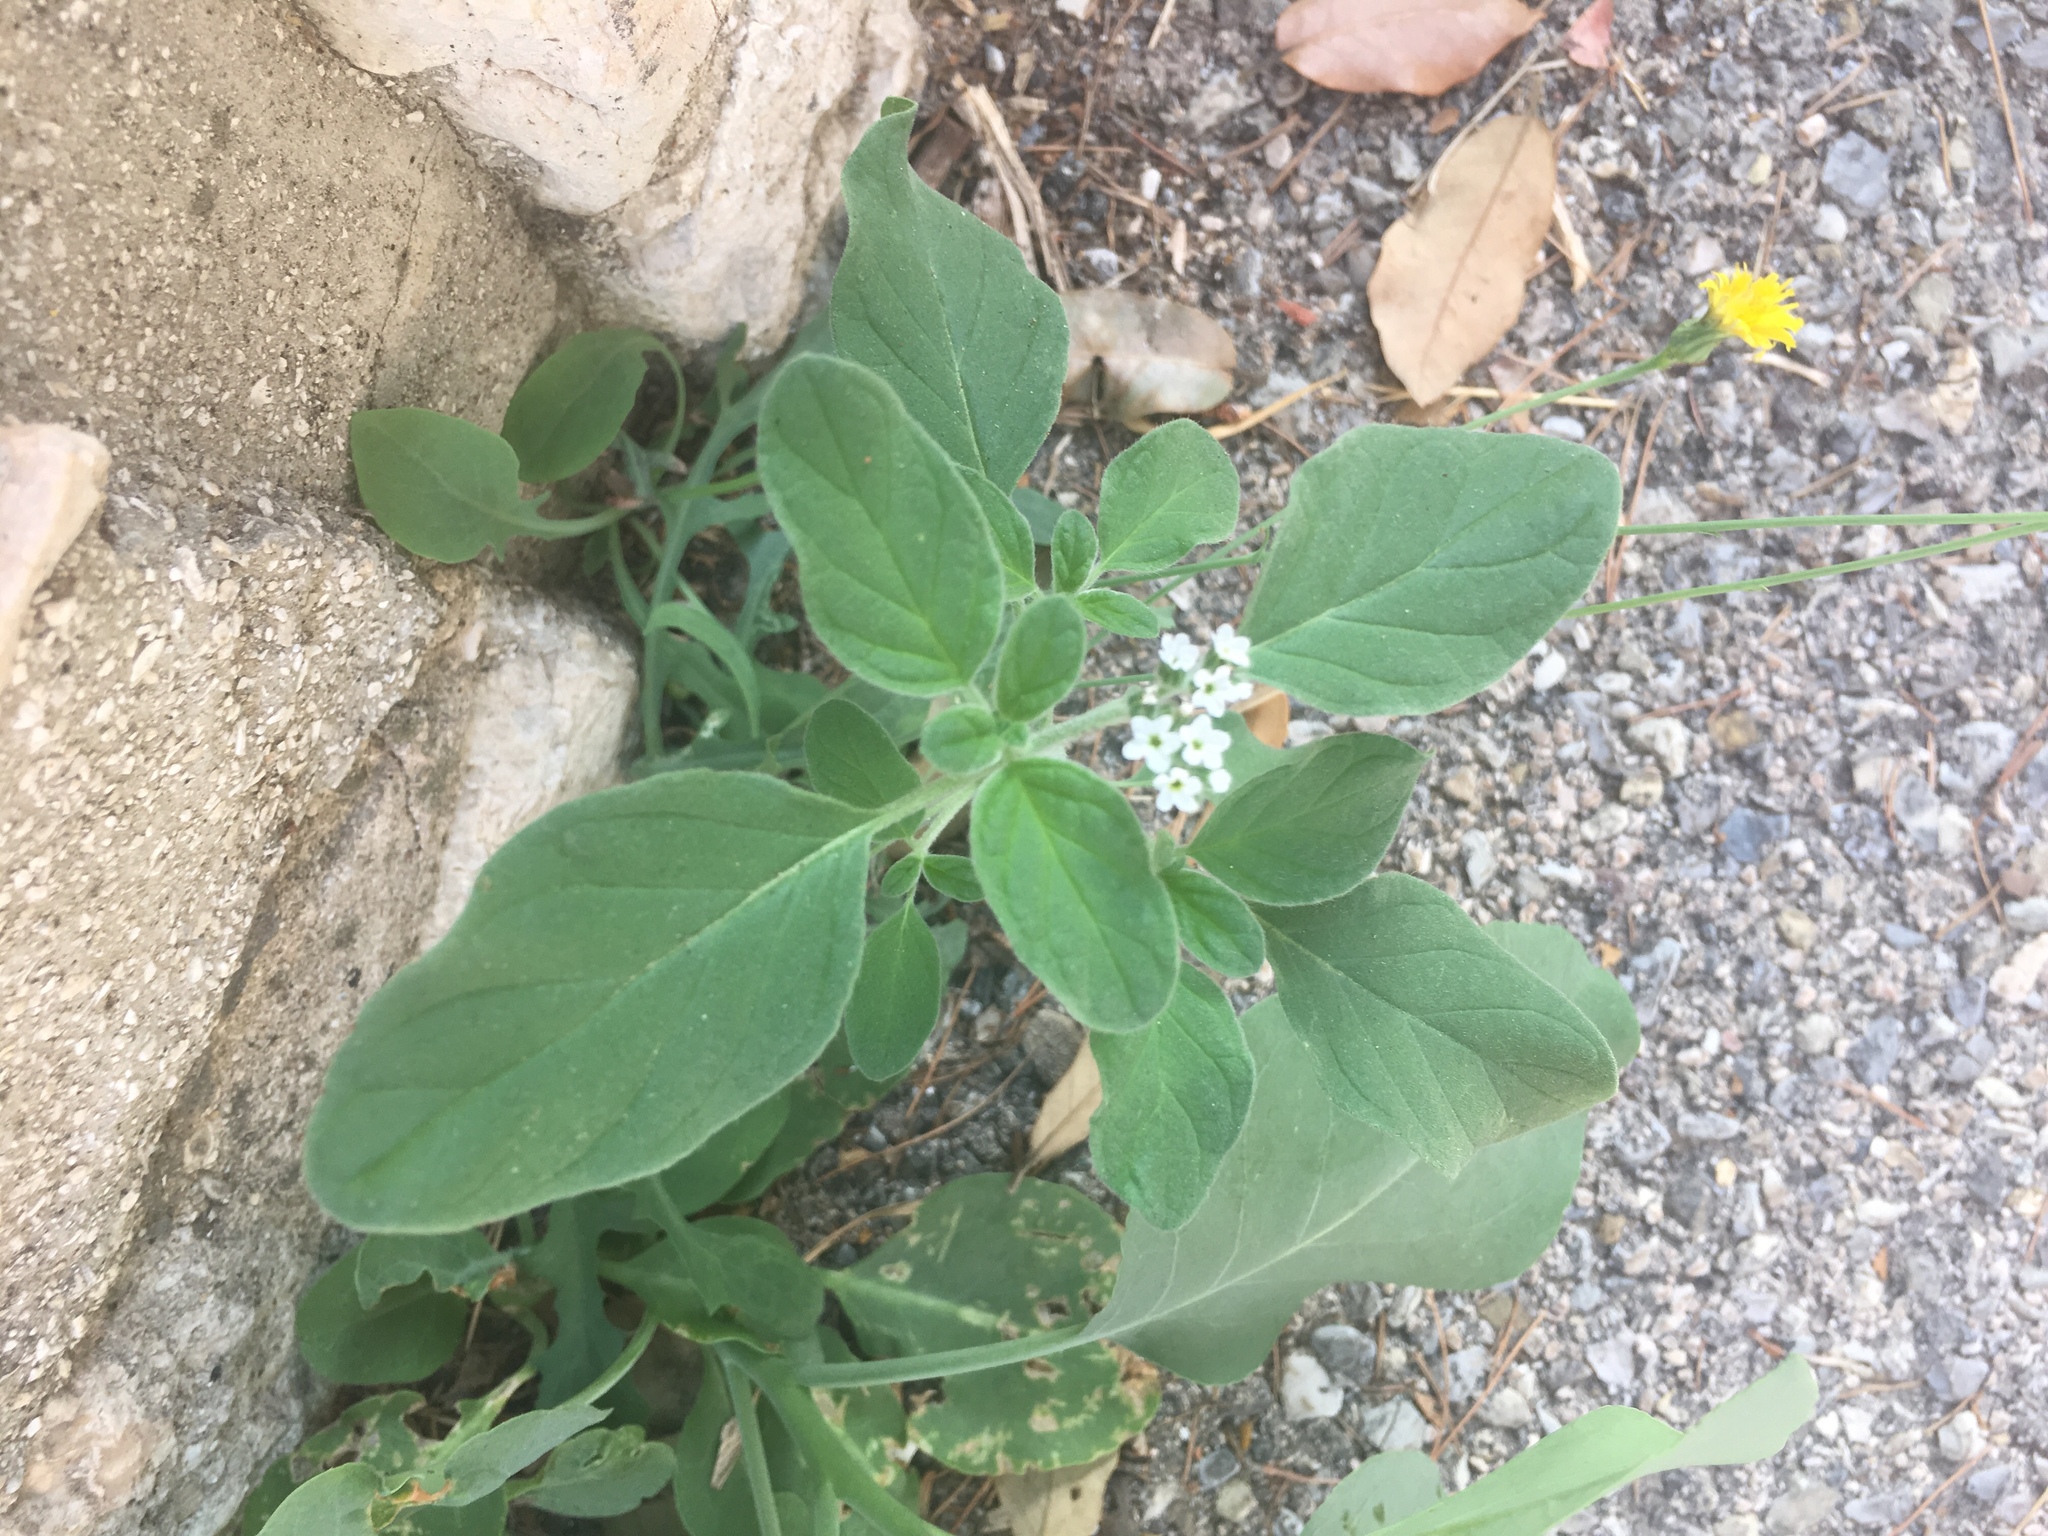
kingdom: Plantae
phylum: Tracheophyta
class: Magnoliopsida
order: Boraginales
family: Heliotropiaceae
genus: Heliotropium
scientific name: Heliotropium europaeum
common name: European heliotrope
